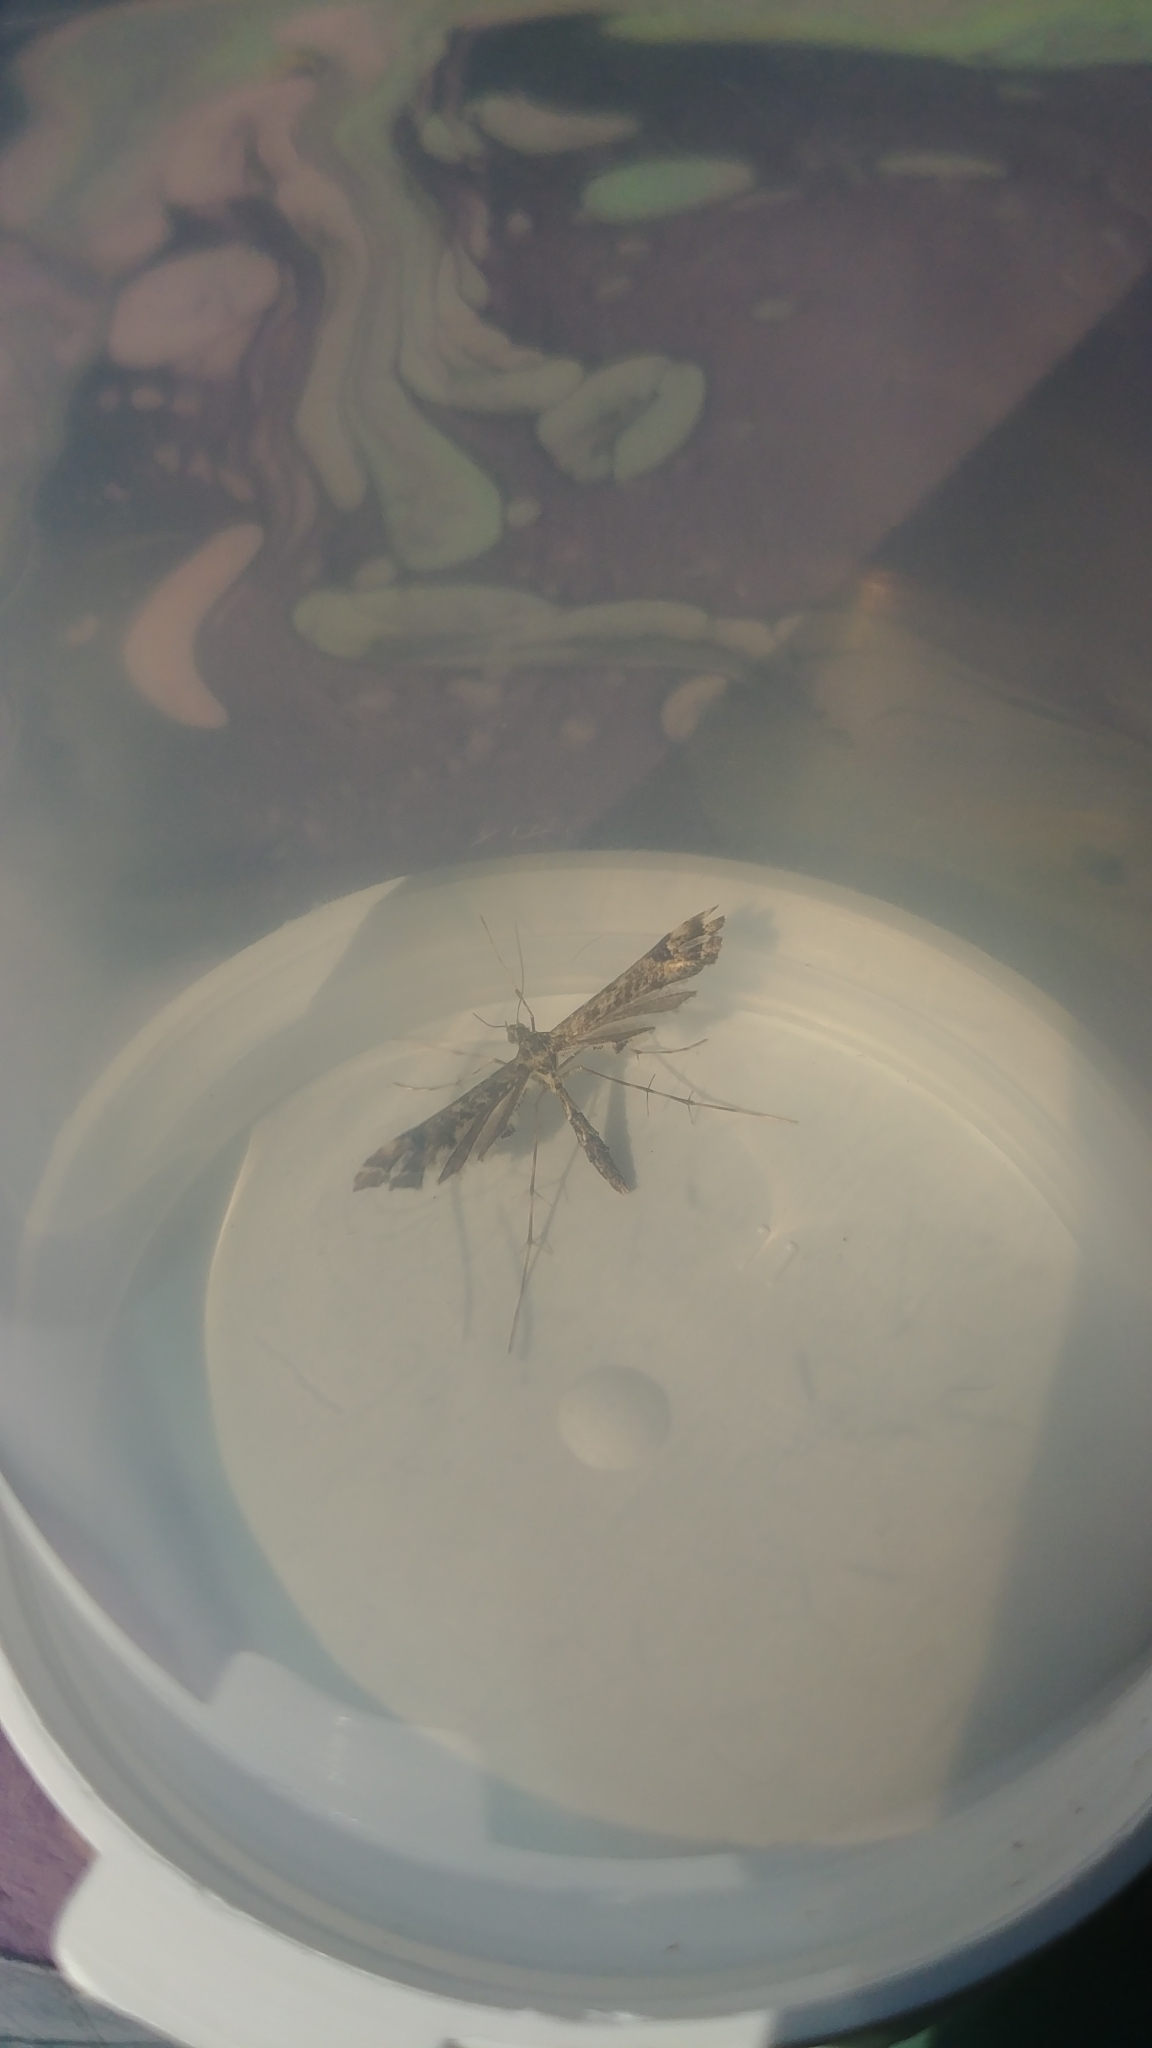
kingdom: Animalia
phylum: Arthropoda
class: Insecta
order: Lepidoptera
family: Pterophoridae
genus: Amblyptilia
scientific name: Amblyptilia pica
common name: Geranium plume moth
